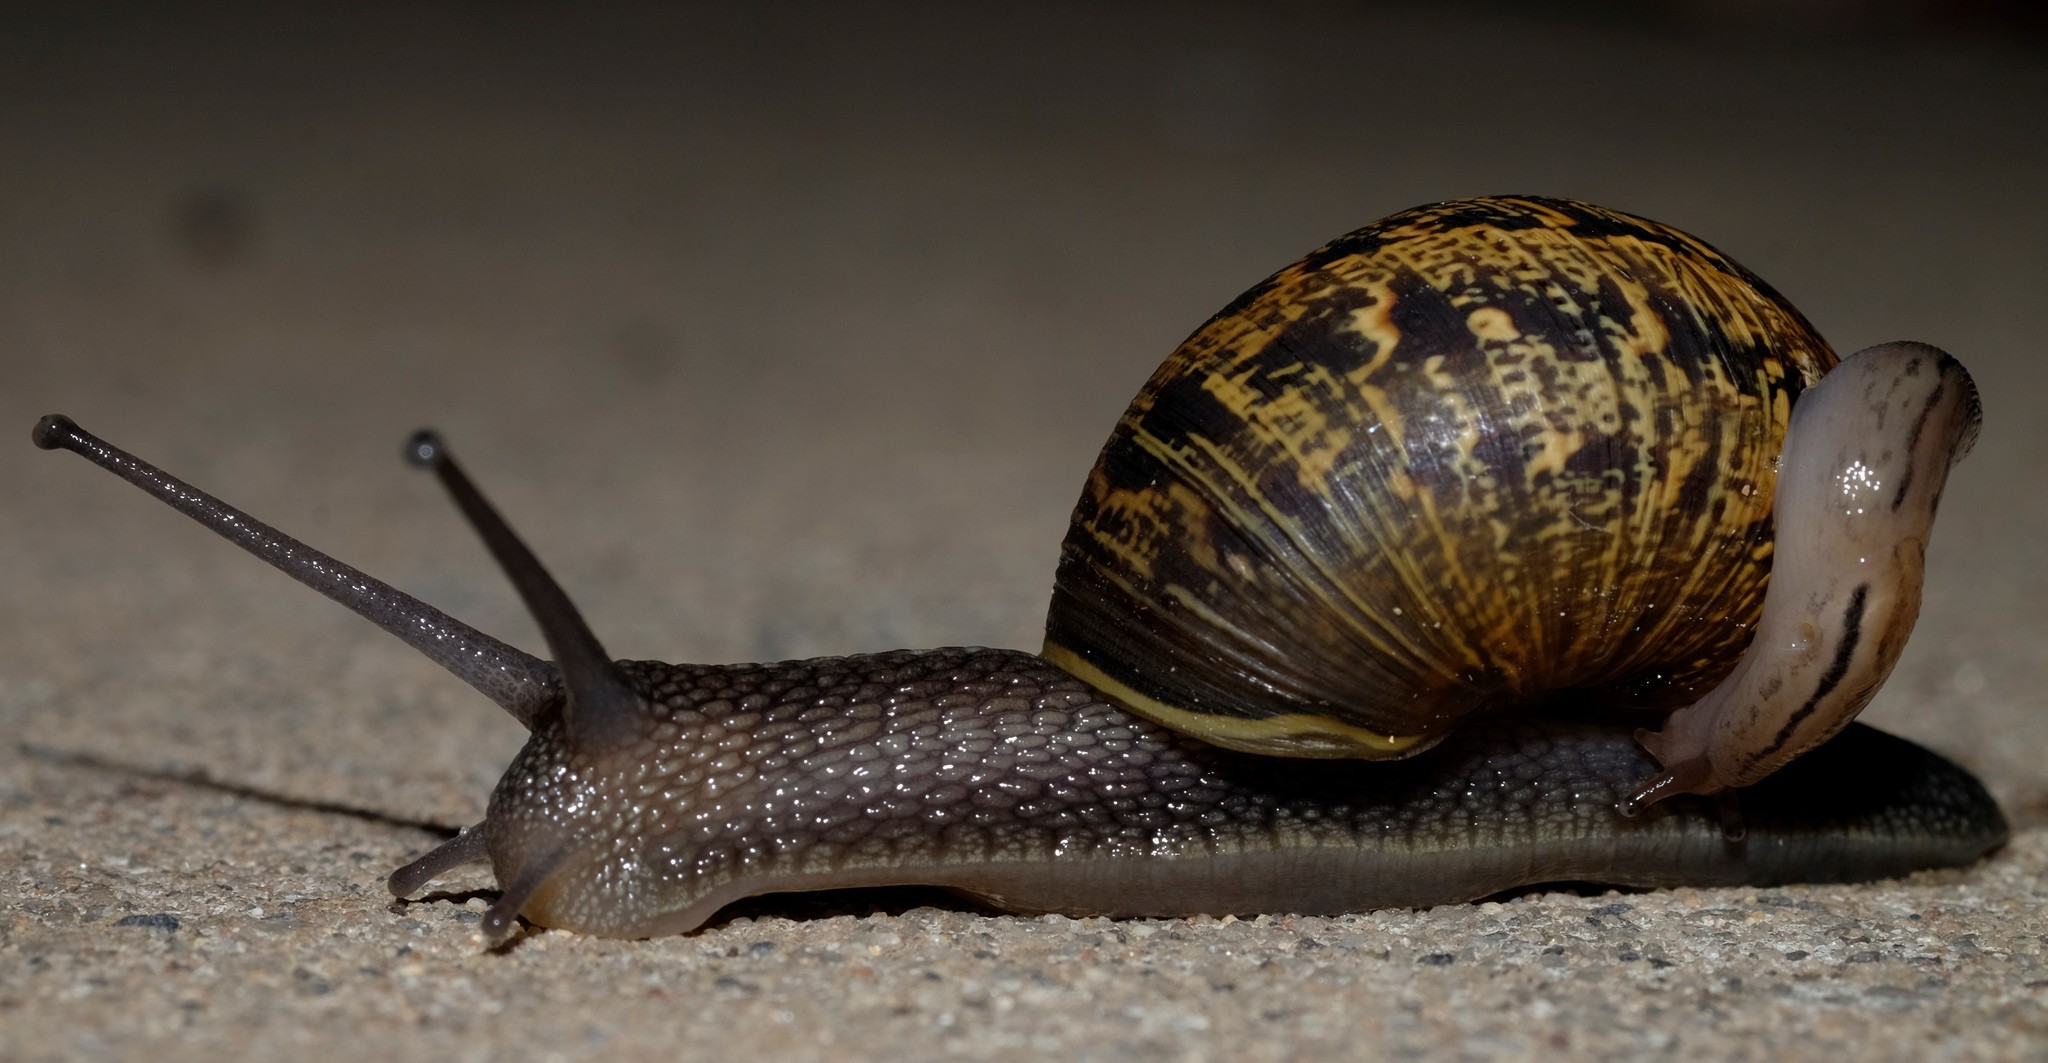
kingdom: Animalia
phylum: Mollusca
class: Gastropoda
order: Stylommatophora
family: Helicidae
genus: Cornu
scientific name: Cornu aspersum
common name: Brown garden snail
